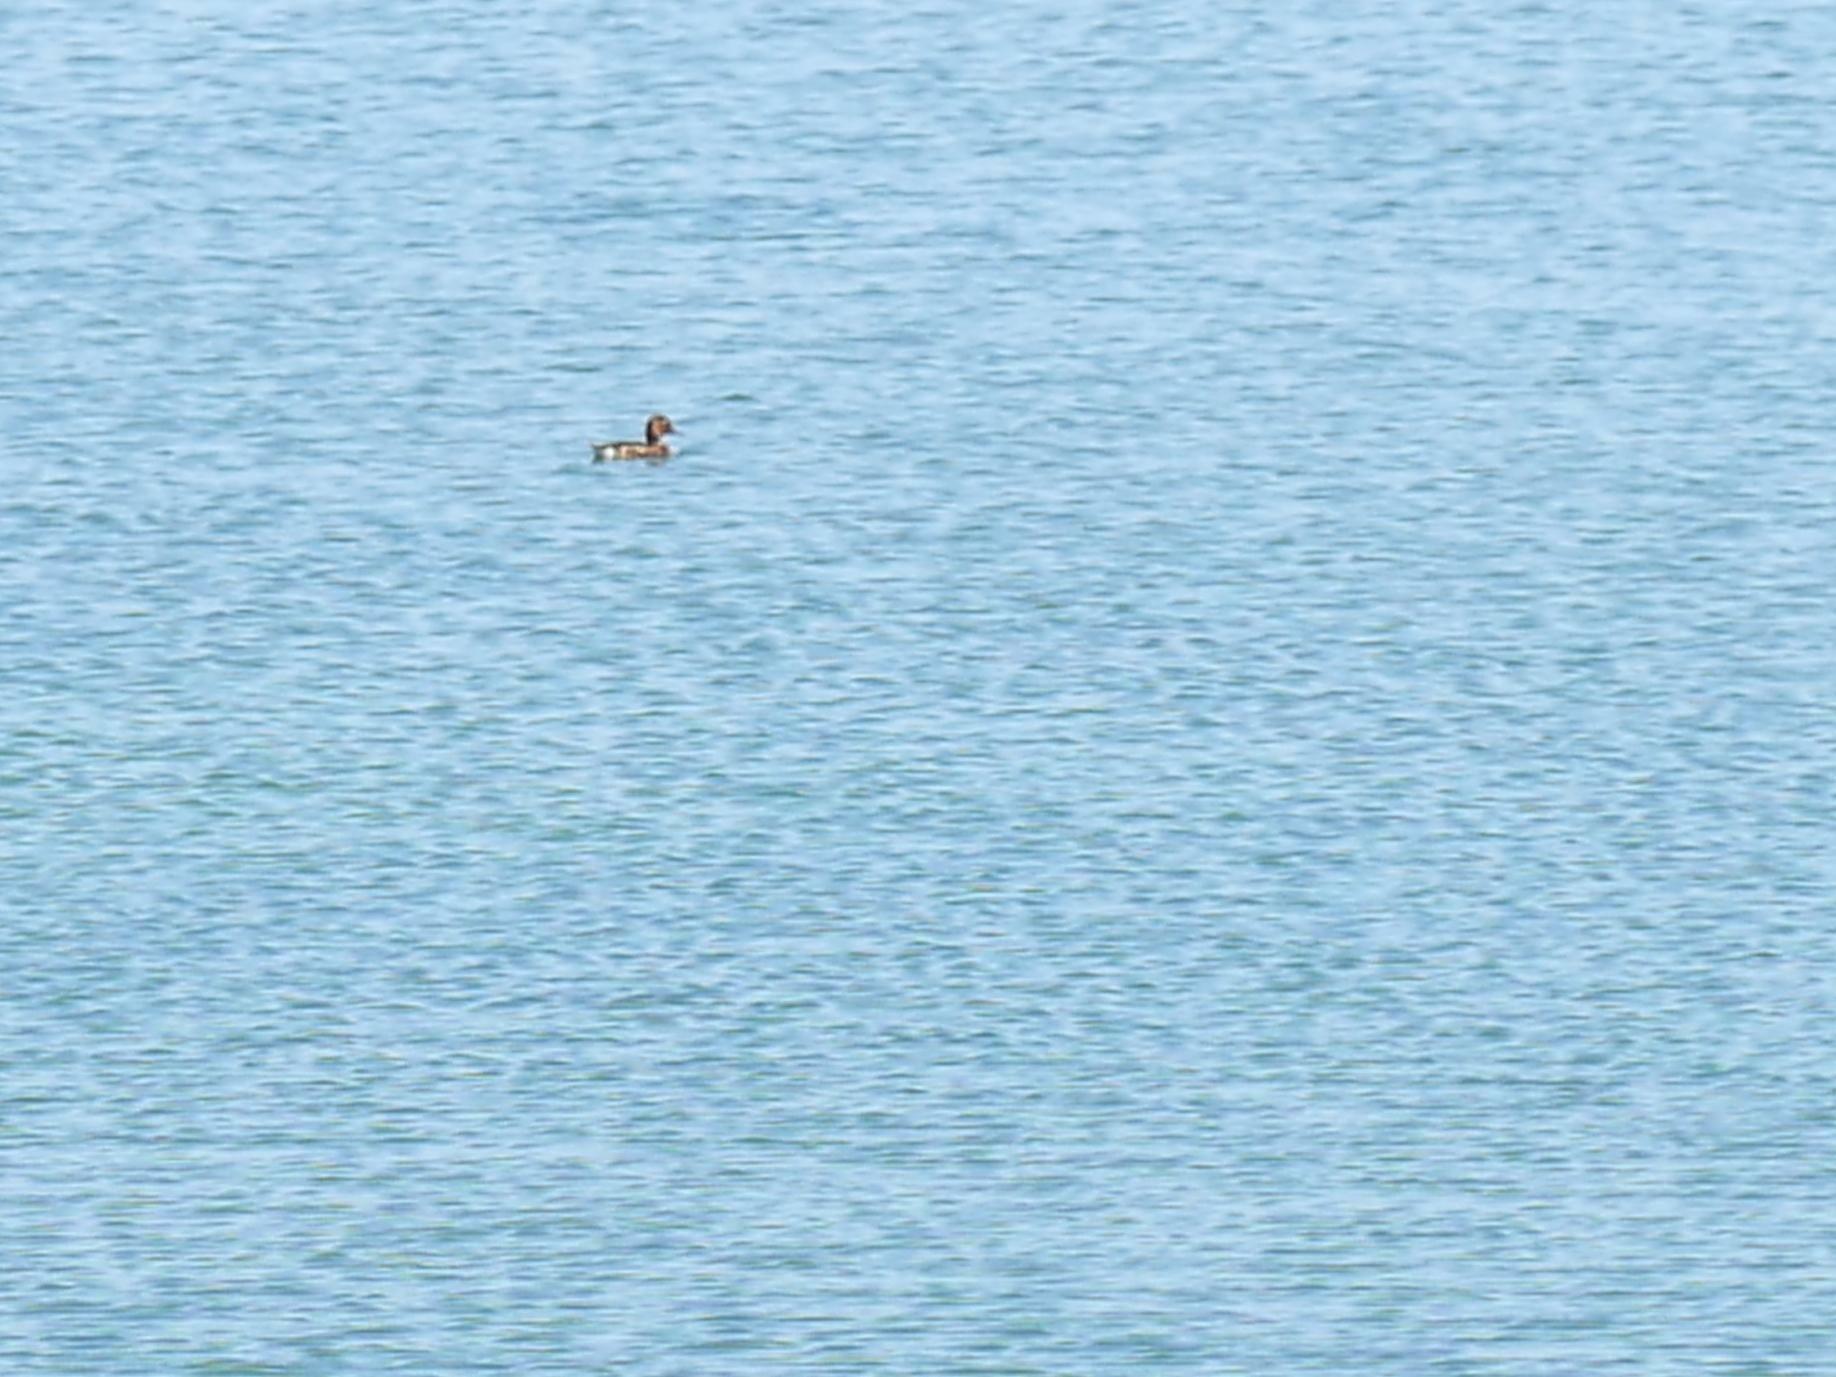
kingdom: Animalia
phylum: Chordata
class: Aves
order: Anseriformes
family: Anatidae
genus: Aythya
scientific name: Aythya nyroca
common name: Ferruginous duck
